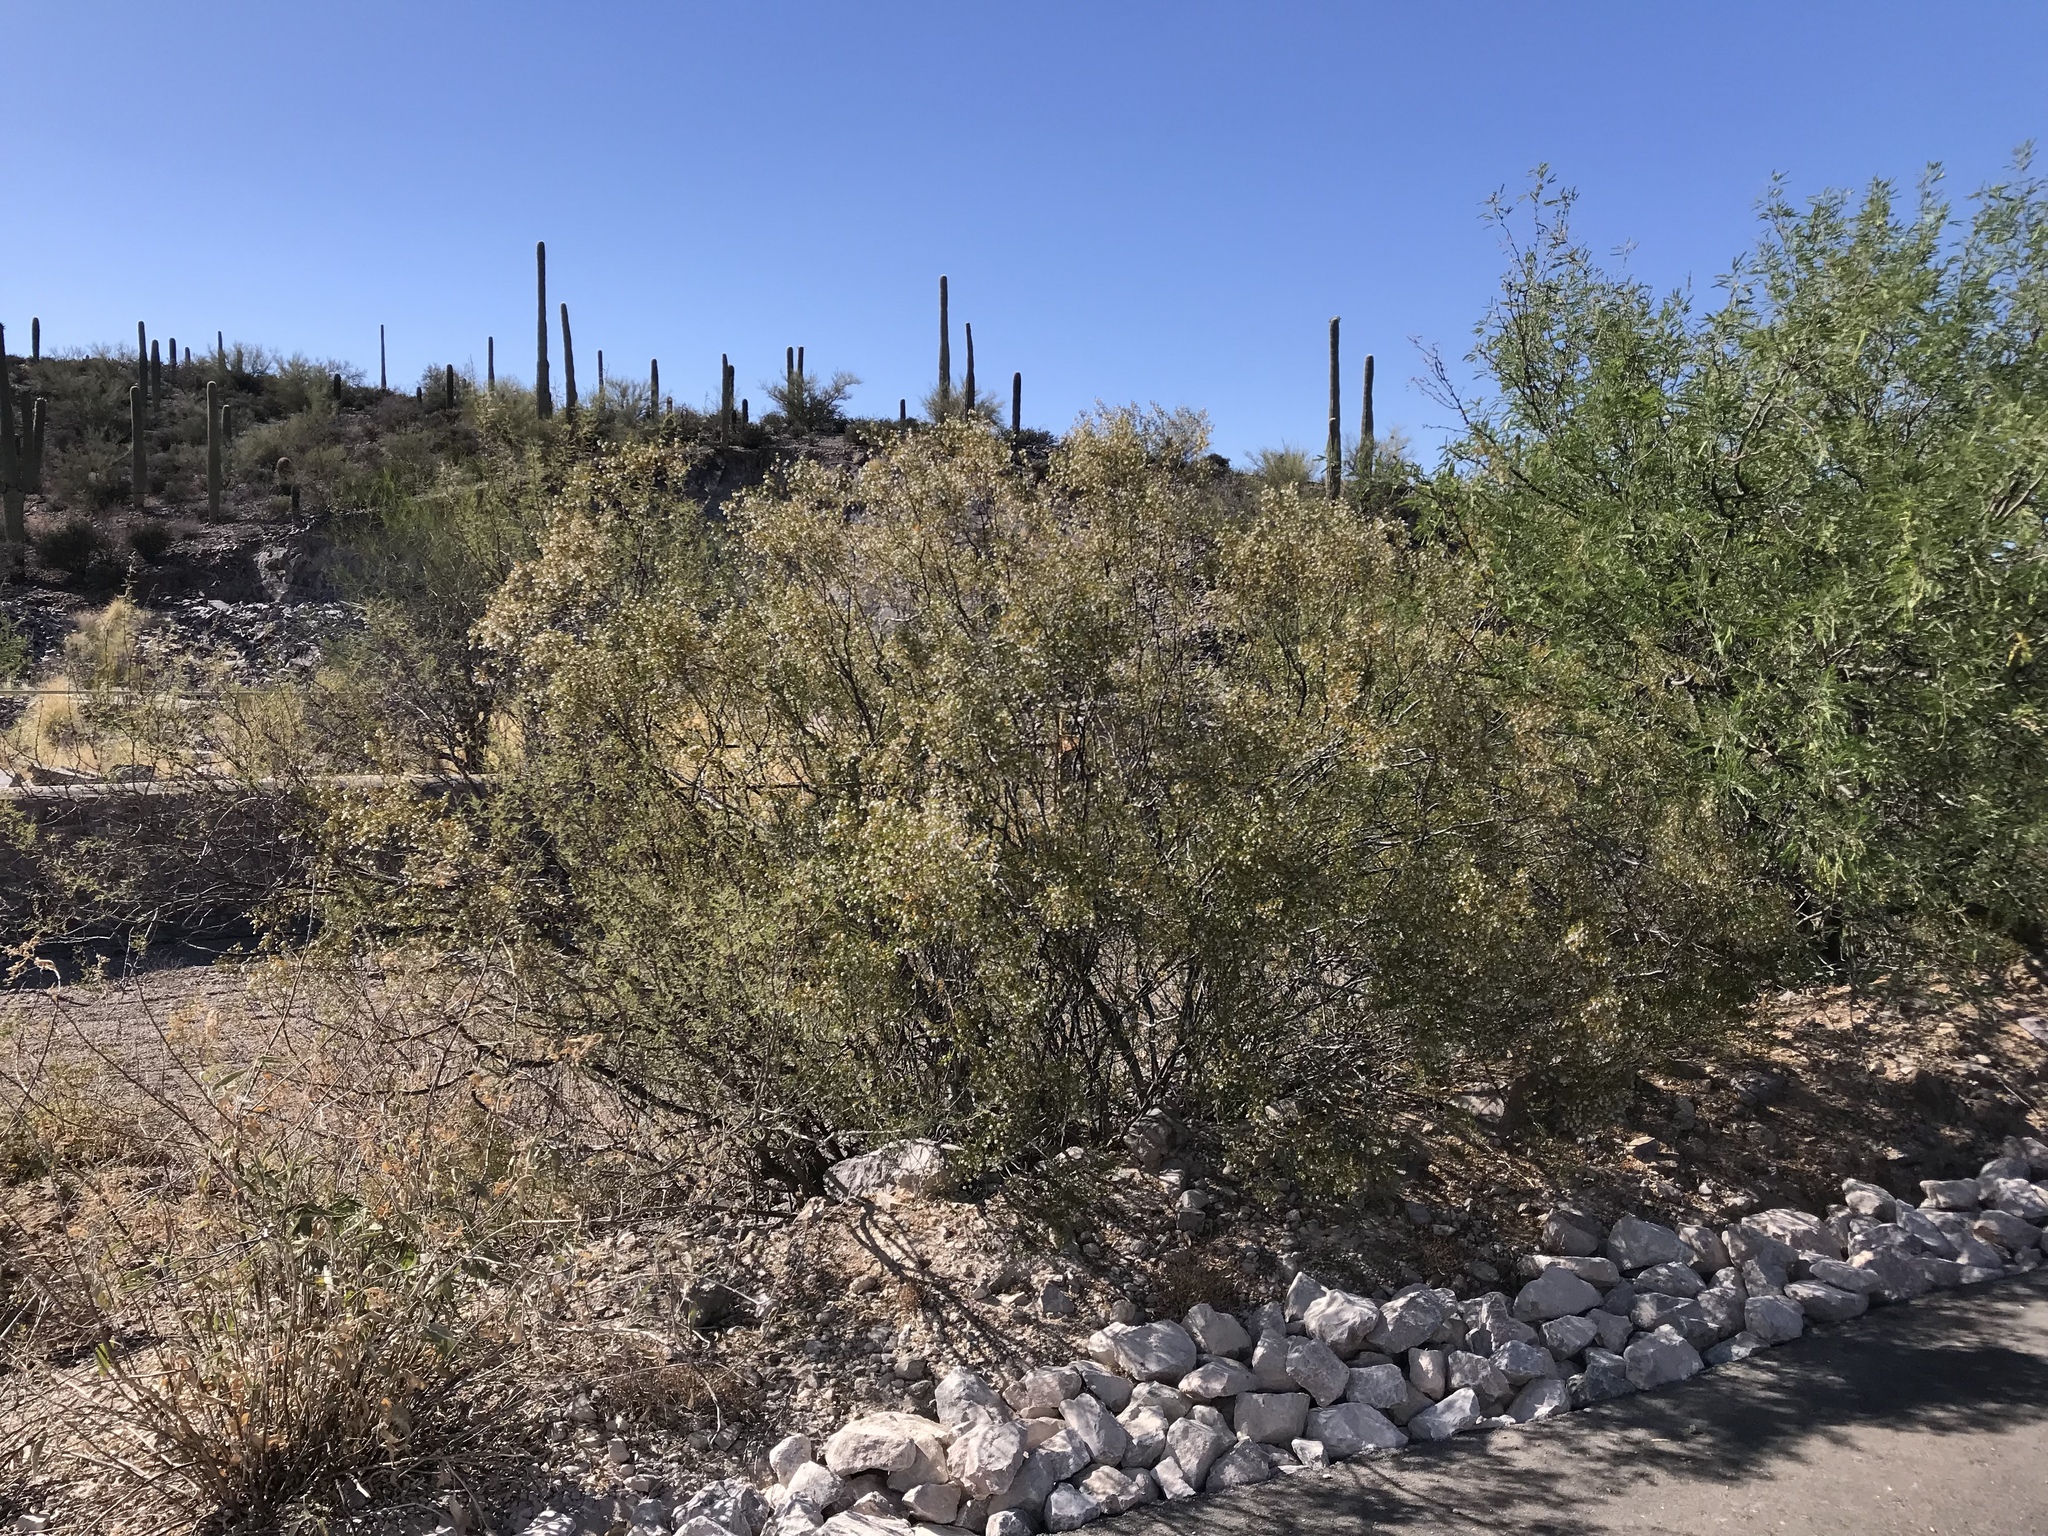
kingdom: Plantae
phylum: Tracheophyta
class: Magnoliopsida
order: Zygophyllales
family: Zygophyllaceae
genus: Larrea
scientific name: Larrea tridentata
